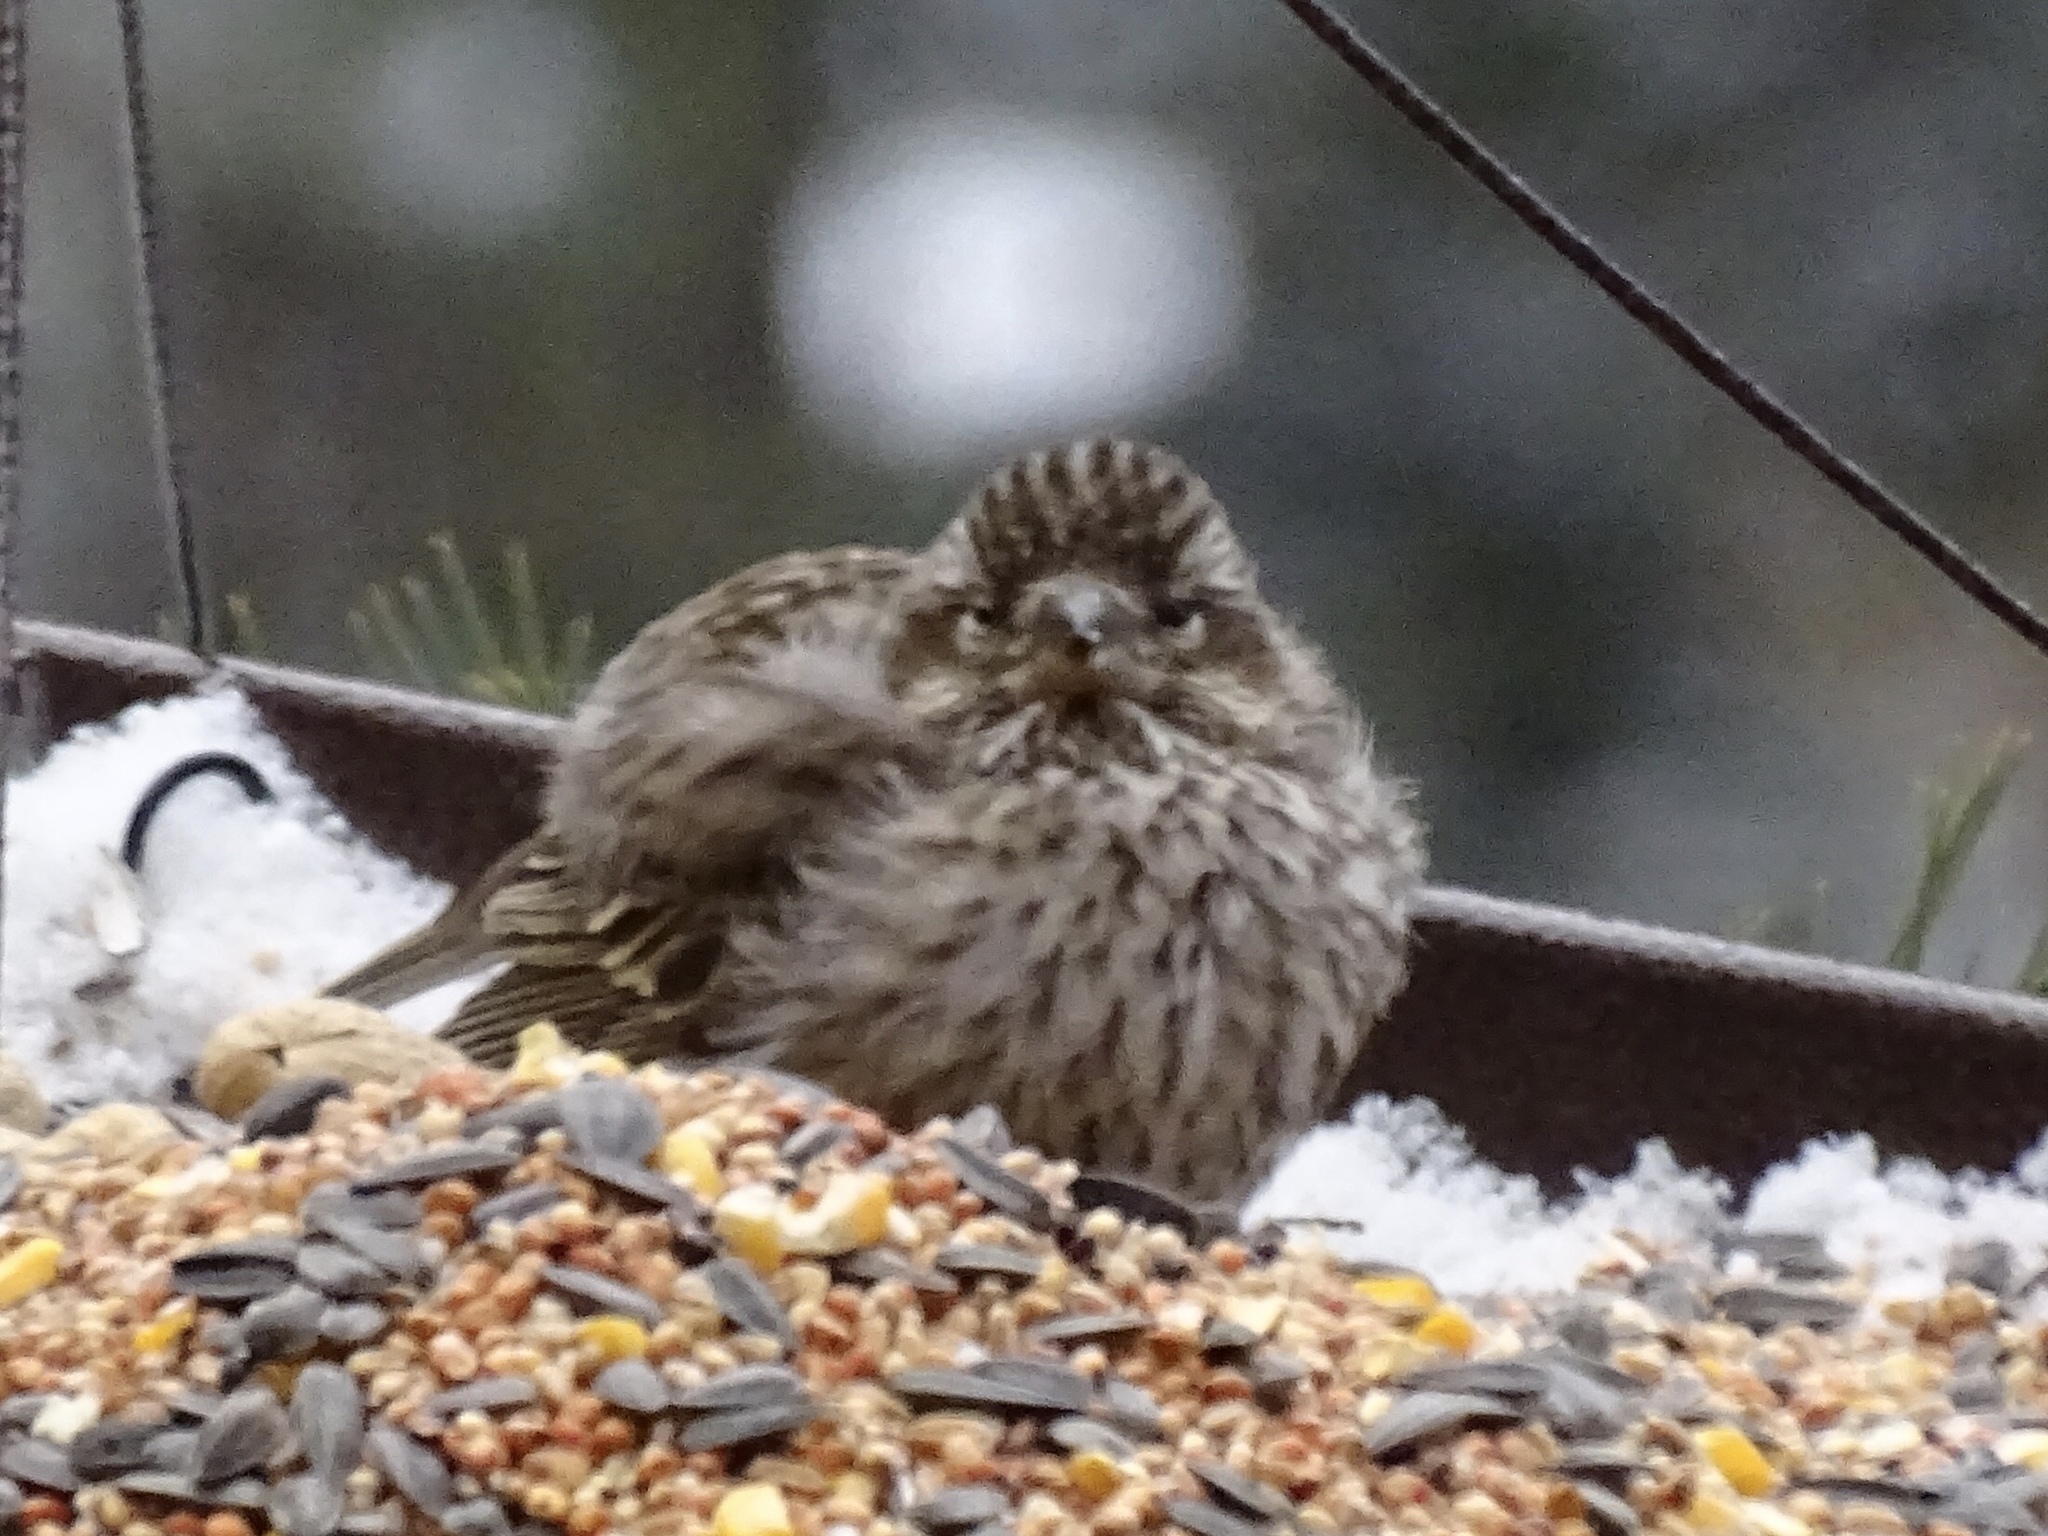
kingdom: Animalia
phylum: Chordata
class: Aves
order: Passeriformes
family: Fringillidae
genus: Spinus
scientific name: Spinus pinus
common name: Pine siskin
